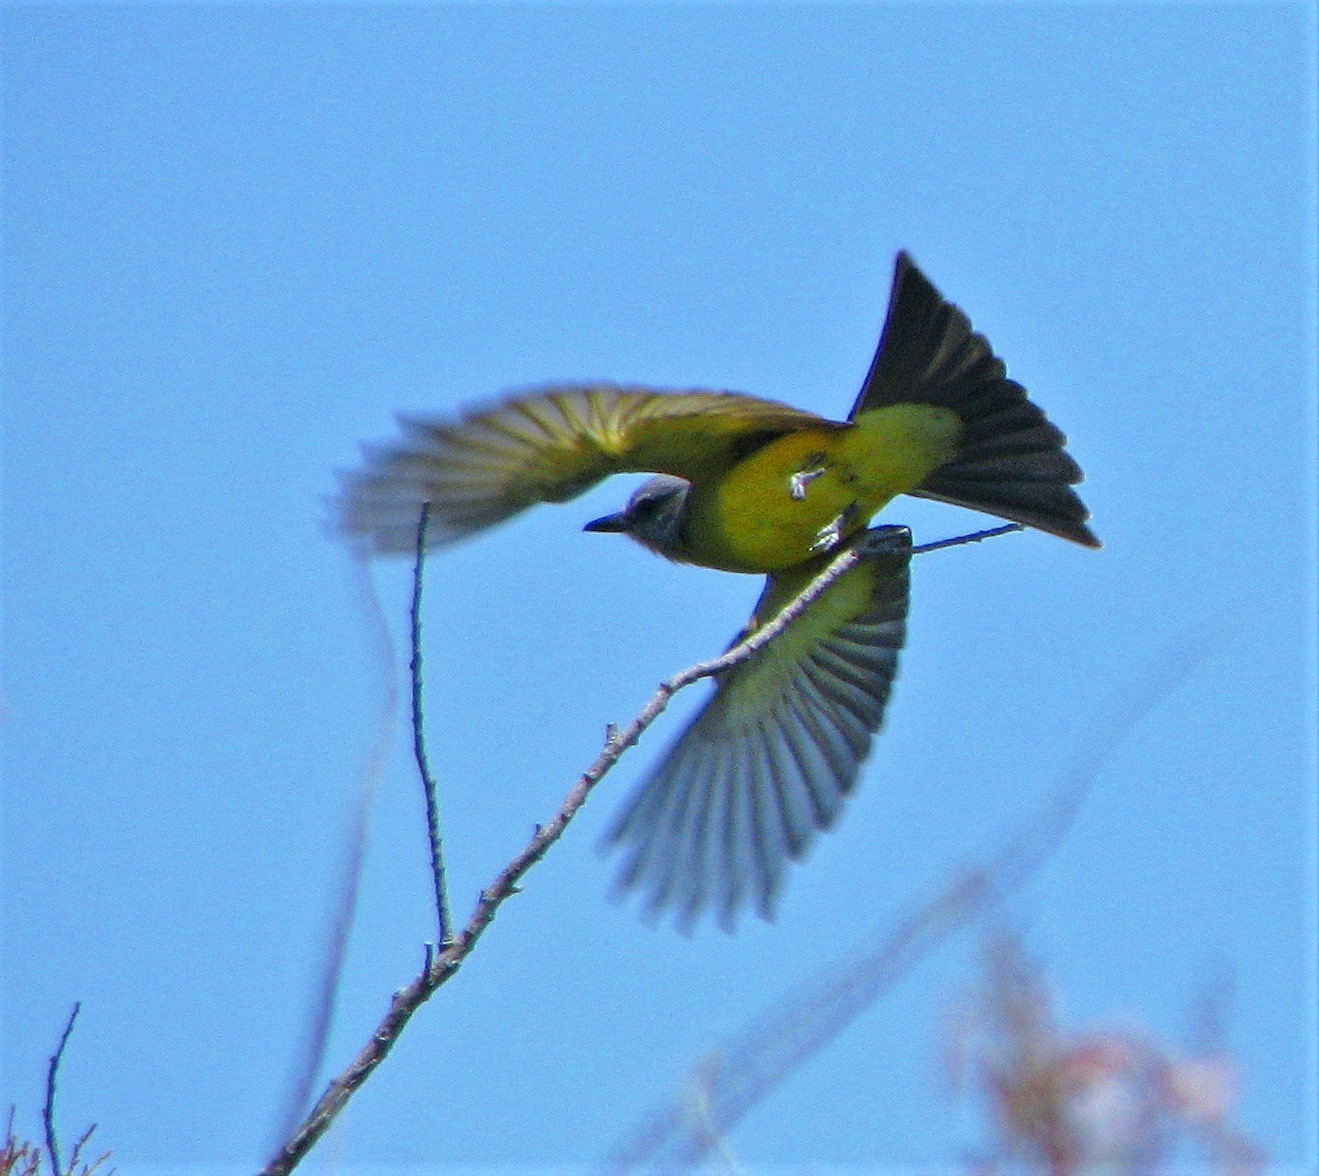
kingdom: Animalia
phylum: Chordata
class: Aves
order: Passeriformes
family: Tyrannidae
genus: Tyrannus
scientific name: Tyrannus melancholicus
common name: Tropical kingbird
